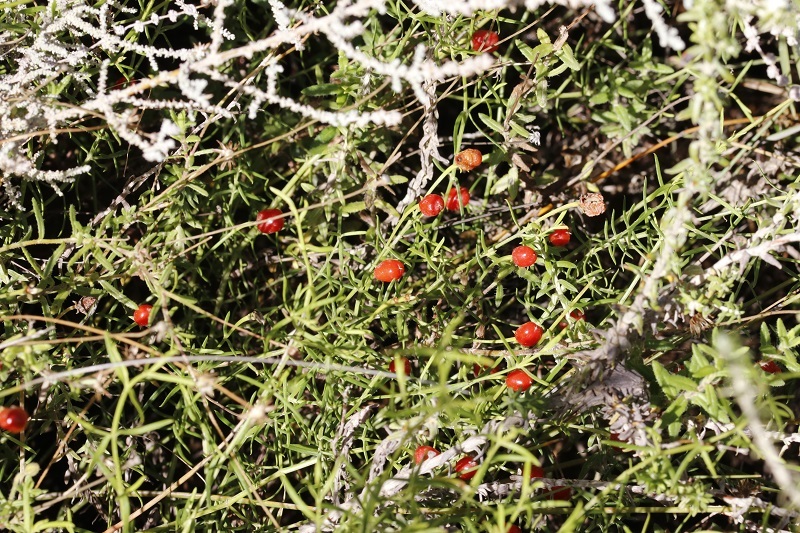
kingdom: Plantae
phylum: Tracheophyta
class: Magnoliopsida
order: Gentianales
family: Gentianaceae
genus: Chironia
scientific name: Chironia baccifera
